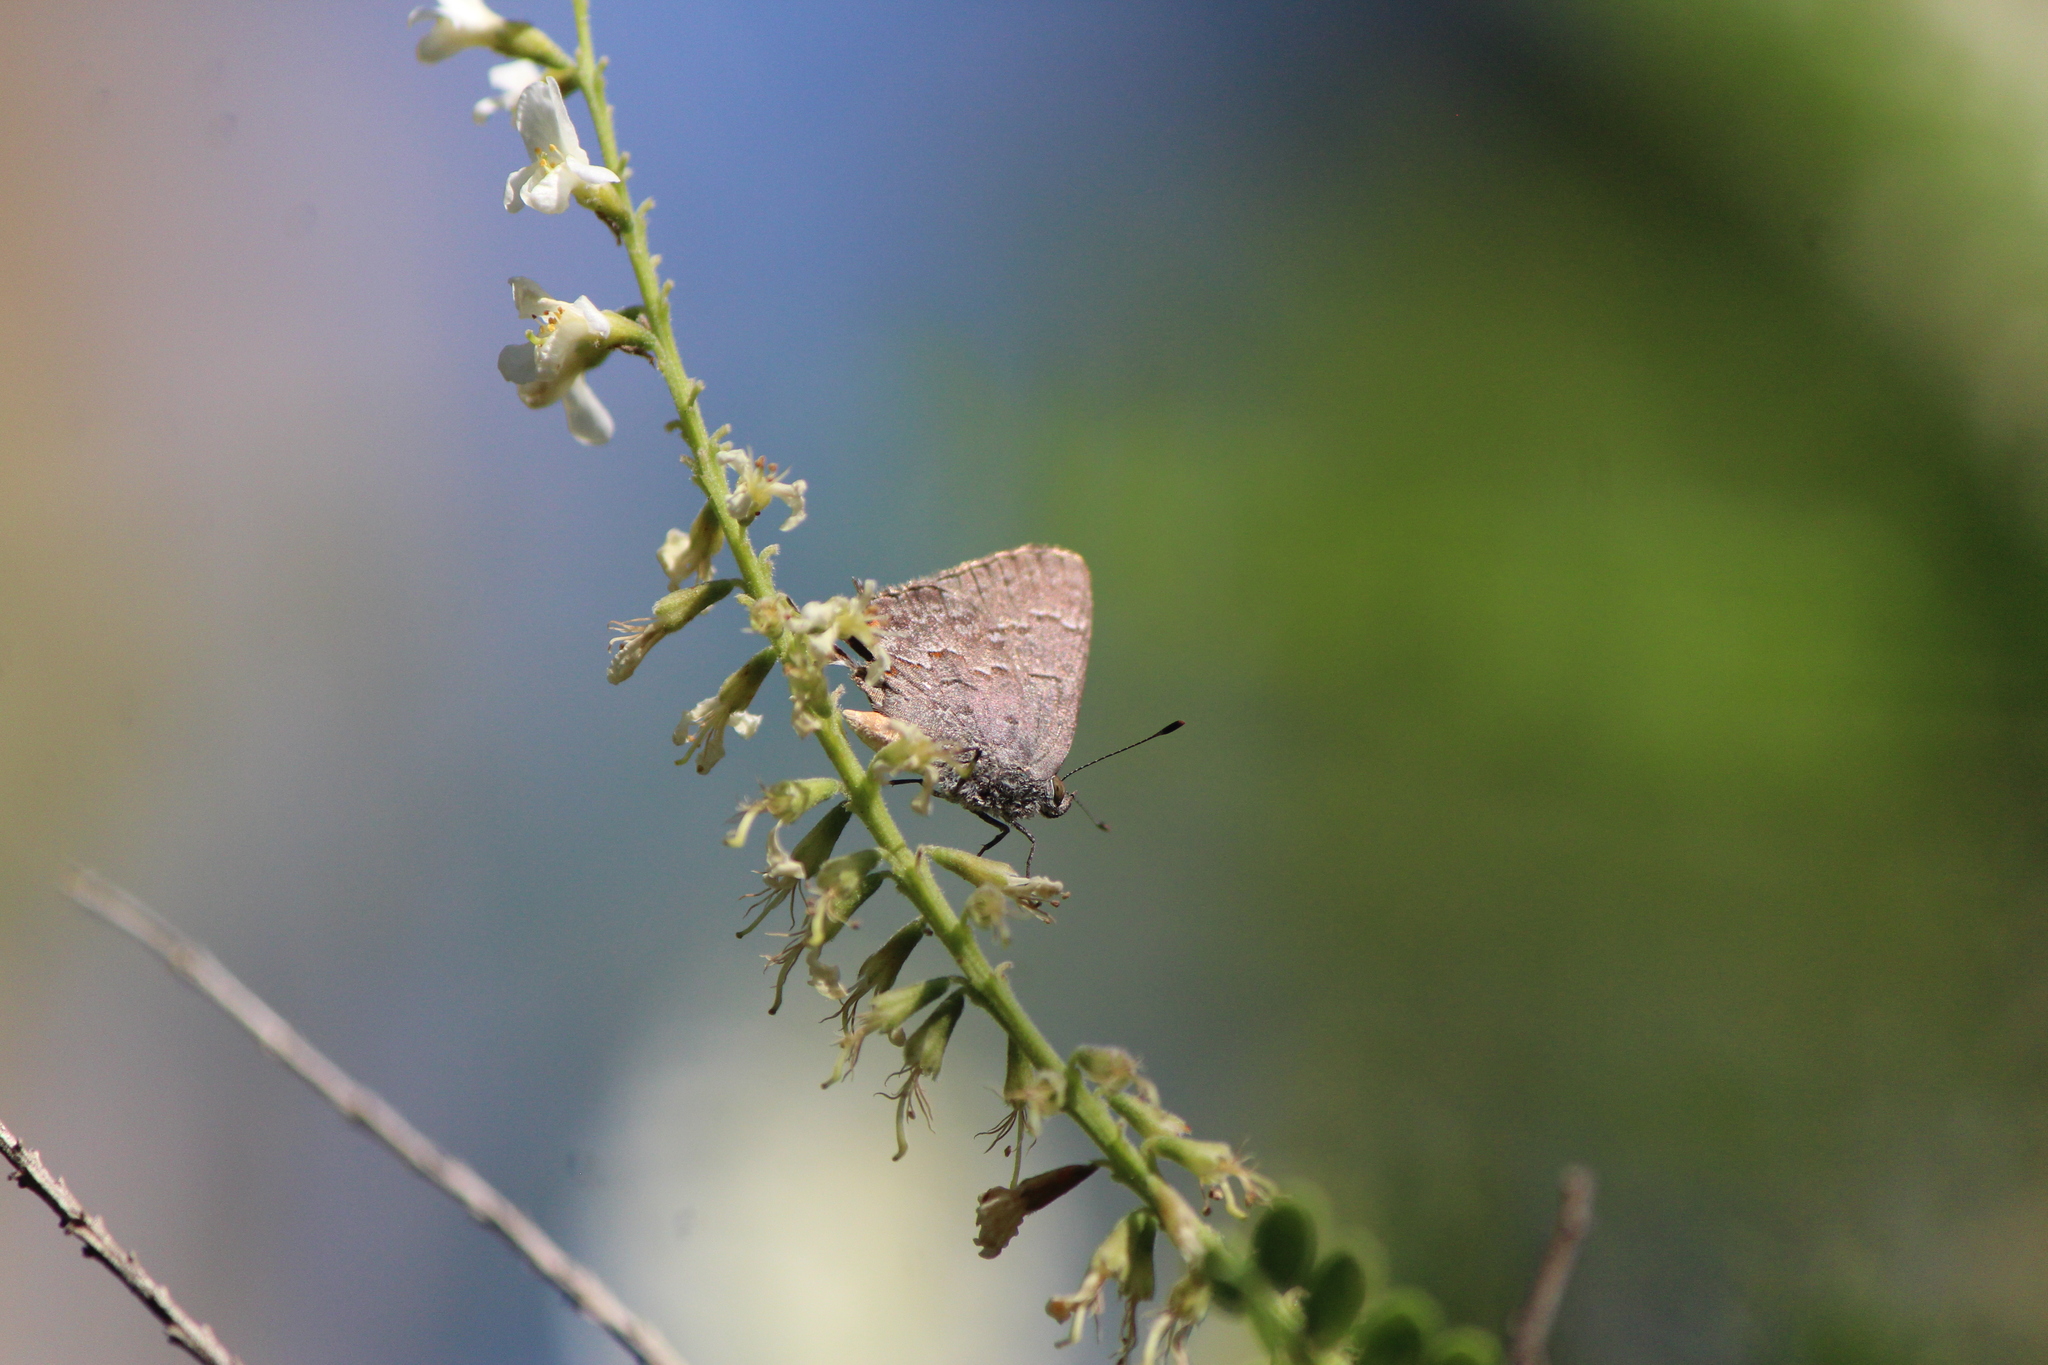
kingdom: Animalia
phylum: Arthropoda
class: Insecta
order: Lepidoptera
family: Lycaenidae
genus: Ministrymon
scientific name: Ministrymon leda
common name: Leda ministreak
